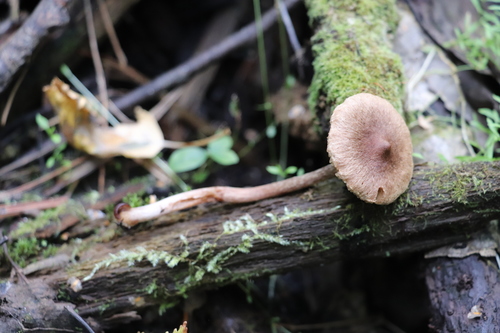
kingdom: Fungi
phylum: Basidiomycota
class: Agaricomycetes
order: Agaricales
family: Inocybaceae
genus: Inocybe
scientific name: Inocybe
